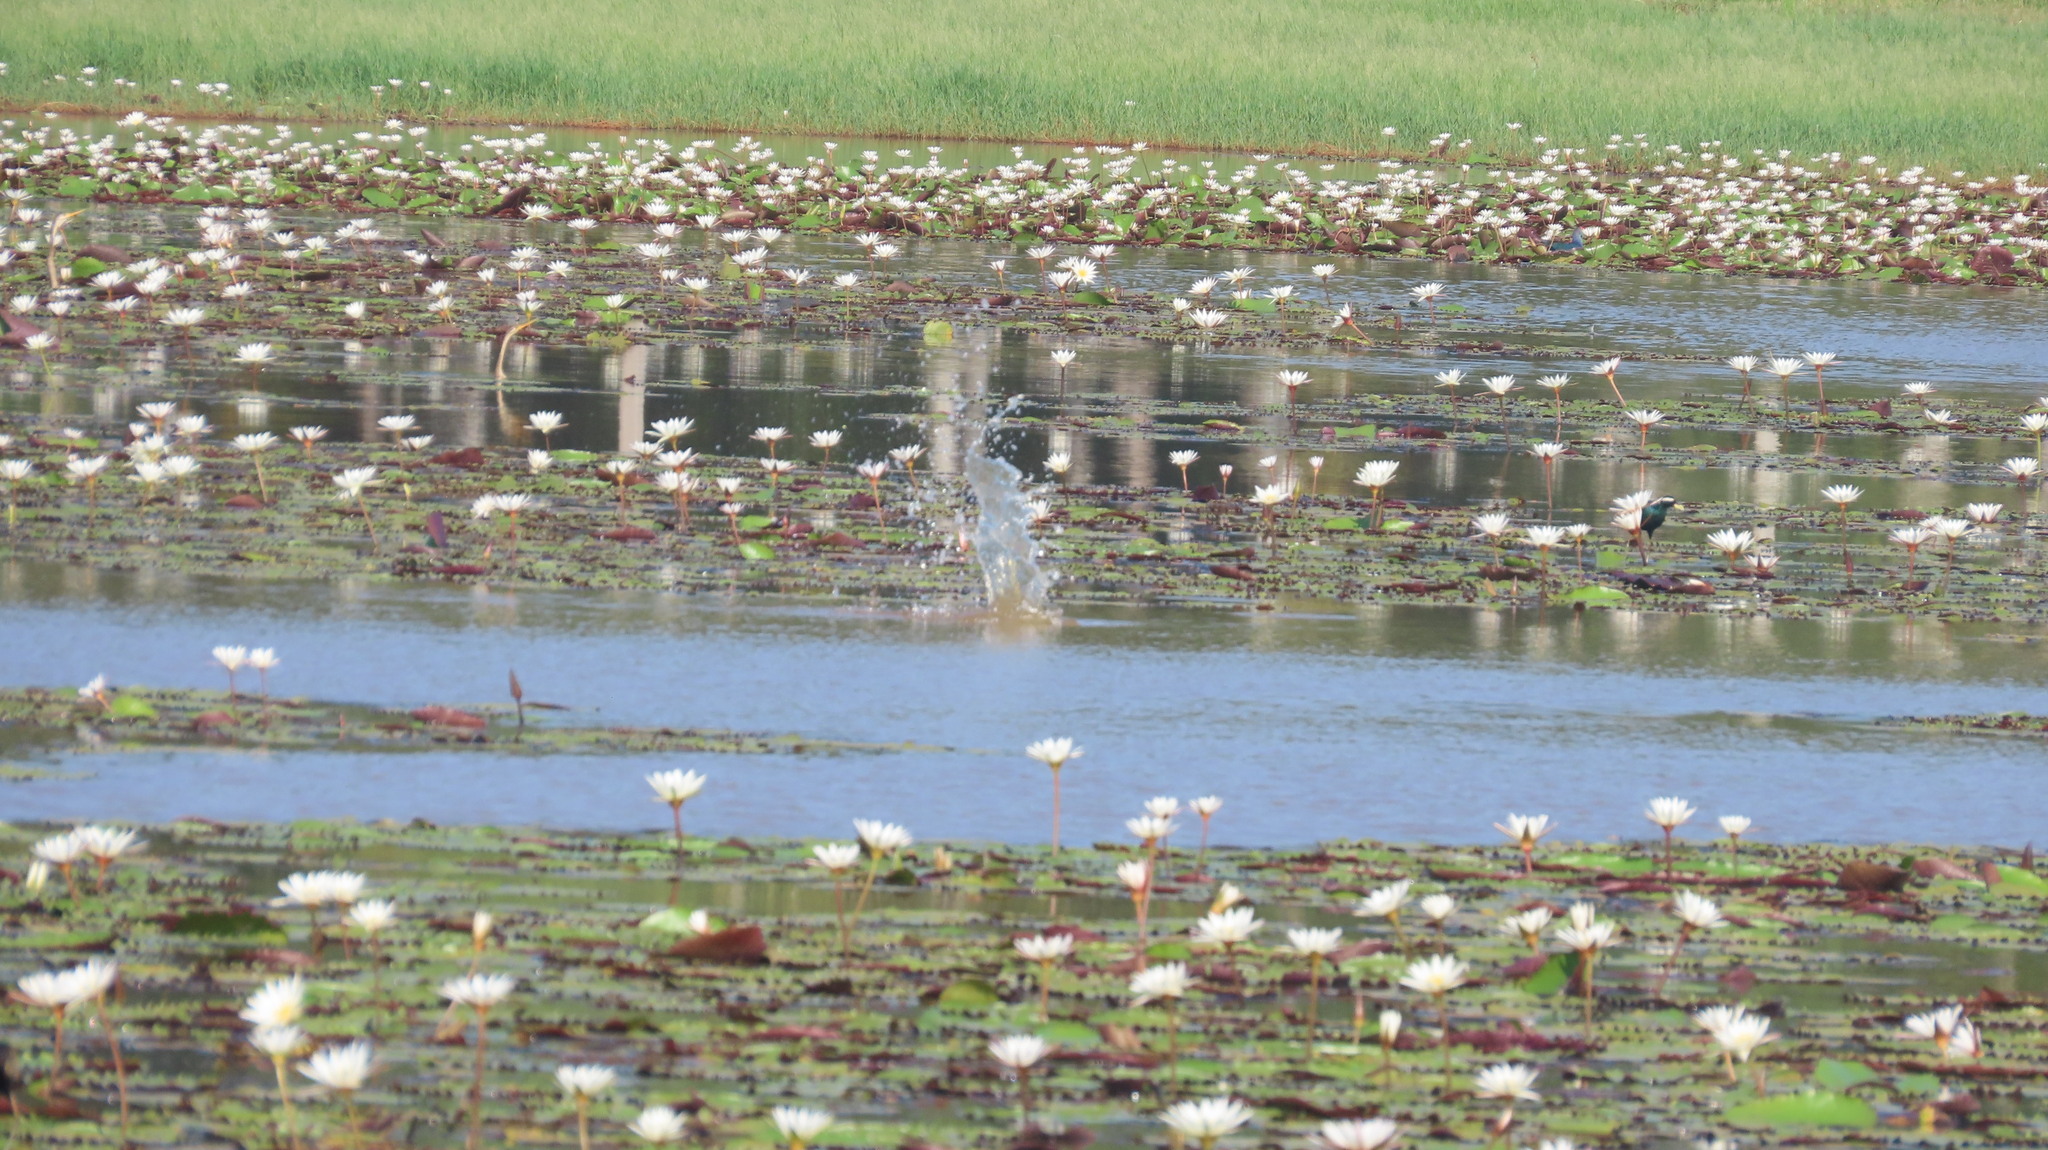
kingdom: Animalia
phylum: Chordata
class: Aves
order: Suliformes
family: Anhingidae
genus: Anhinga
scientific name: Anhinga melanogaster
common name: Oriental darter
